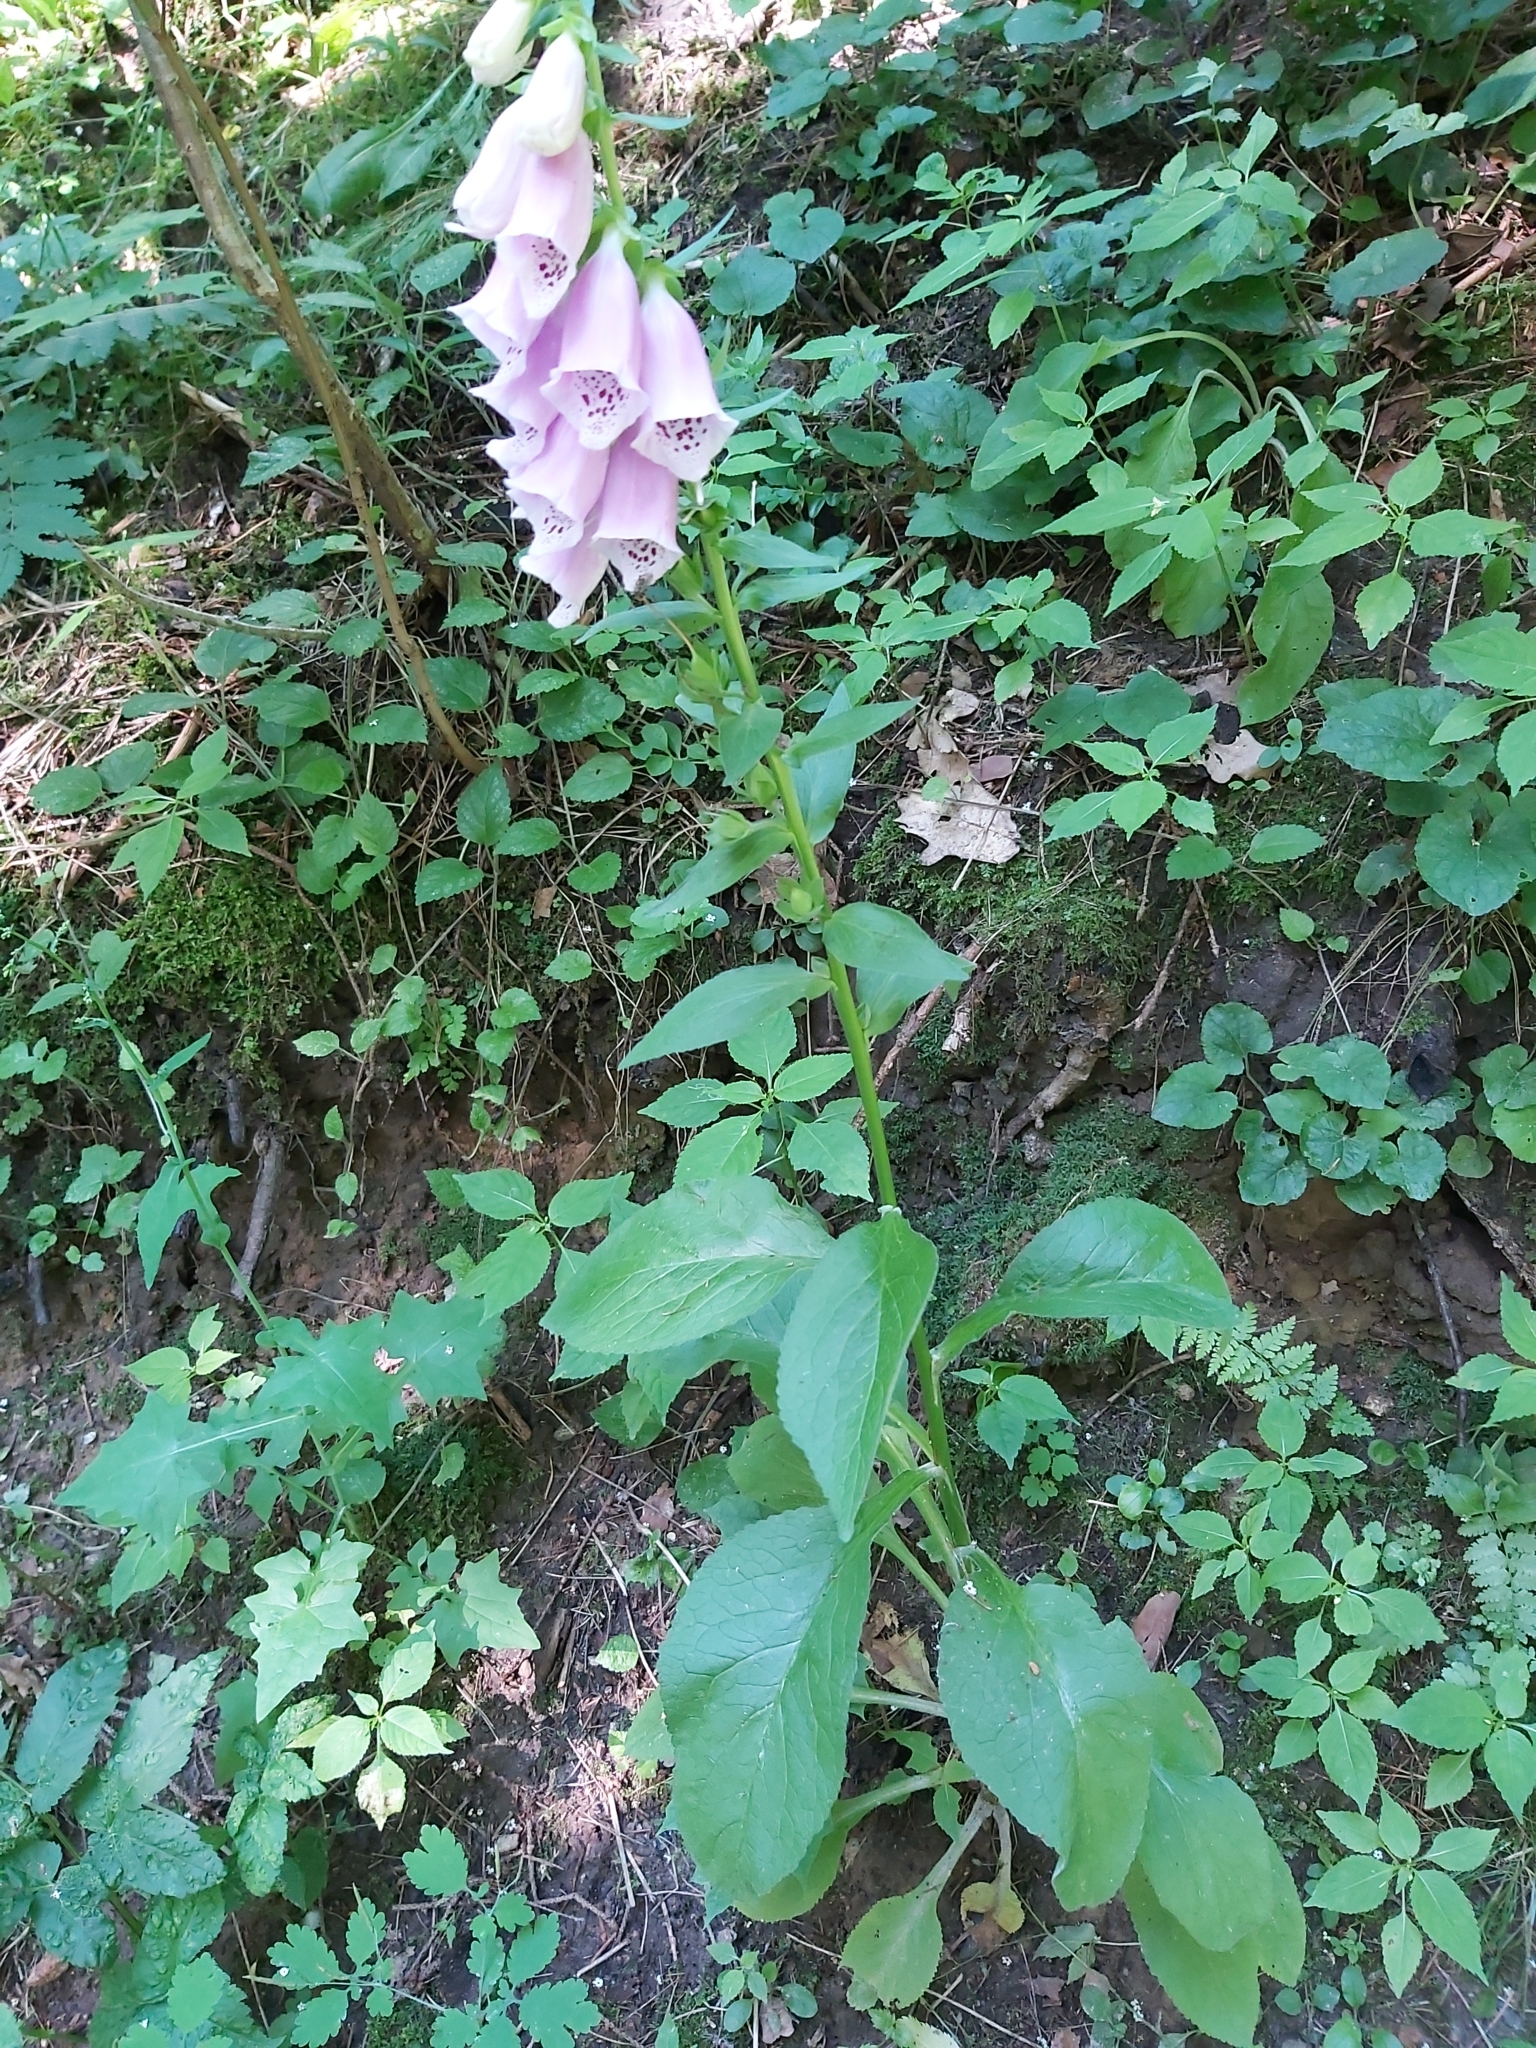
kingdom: Plantae
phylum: Tracheophyta
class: Magnoliopsida
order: Lamiales
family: Plantaginaceae
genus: Digitalis
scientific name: Digitalis purpurea
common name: Foxglove
